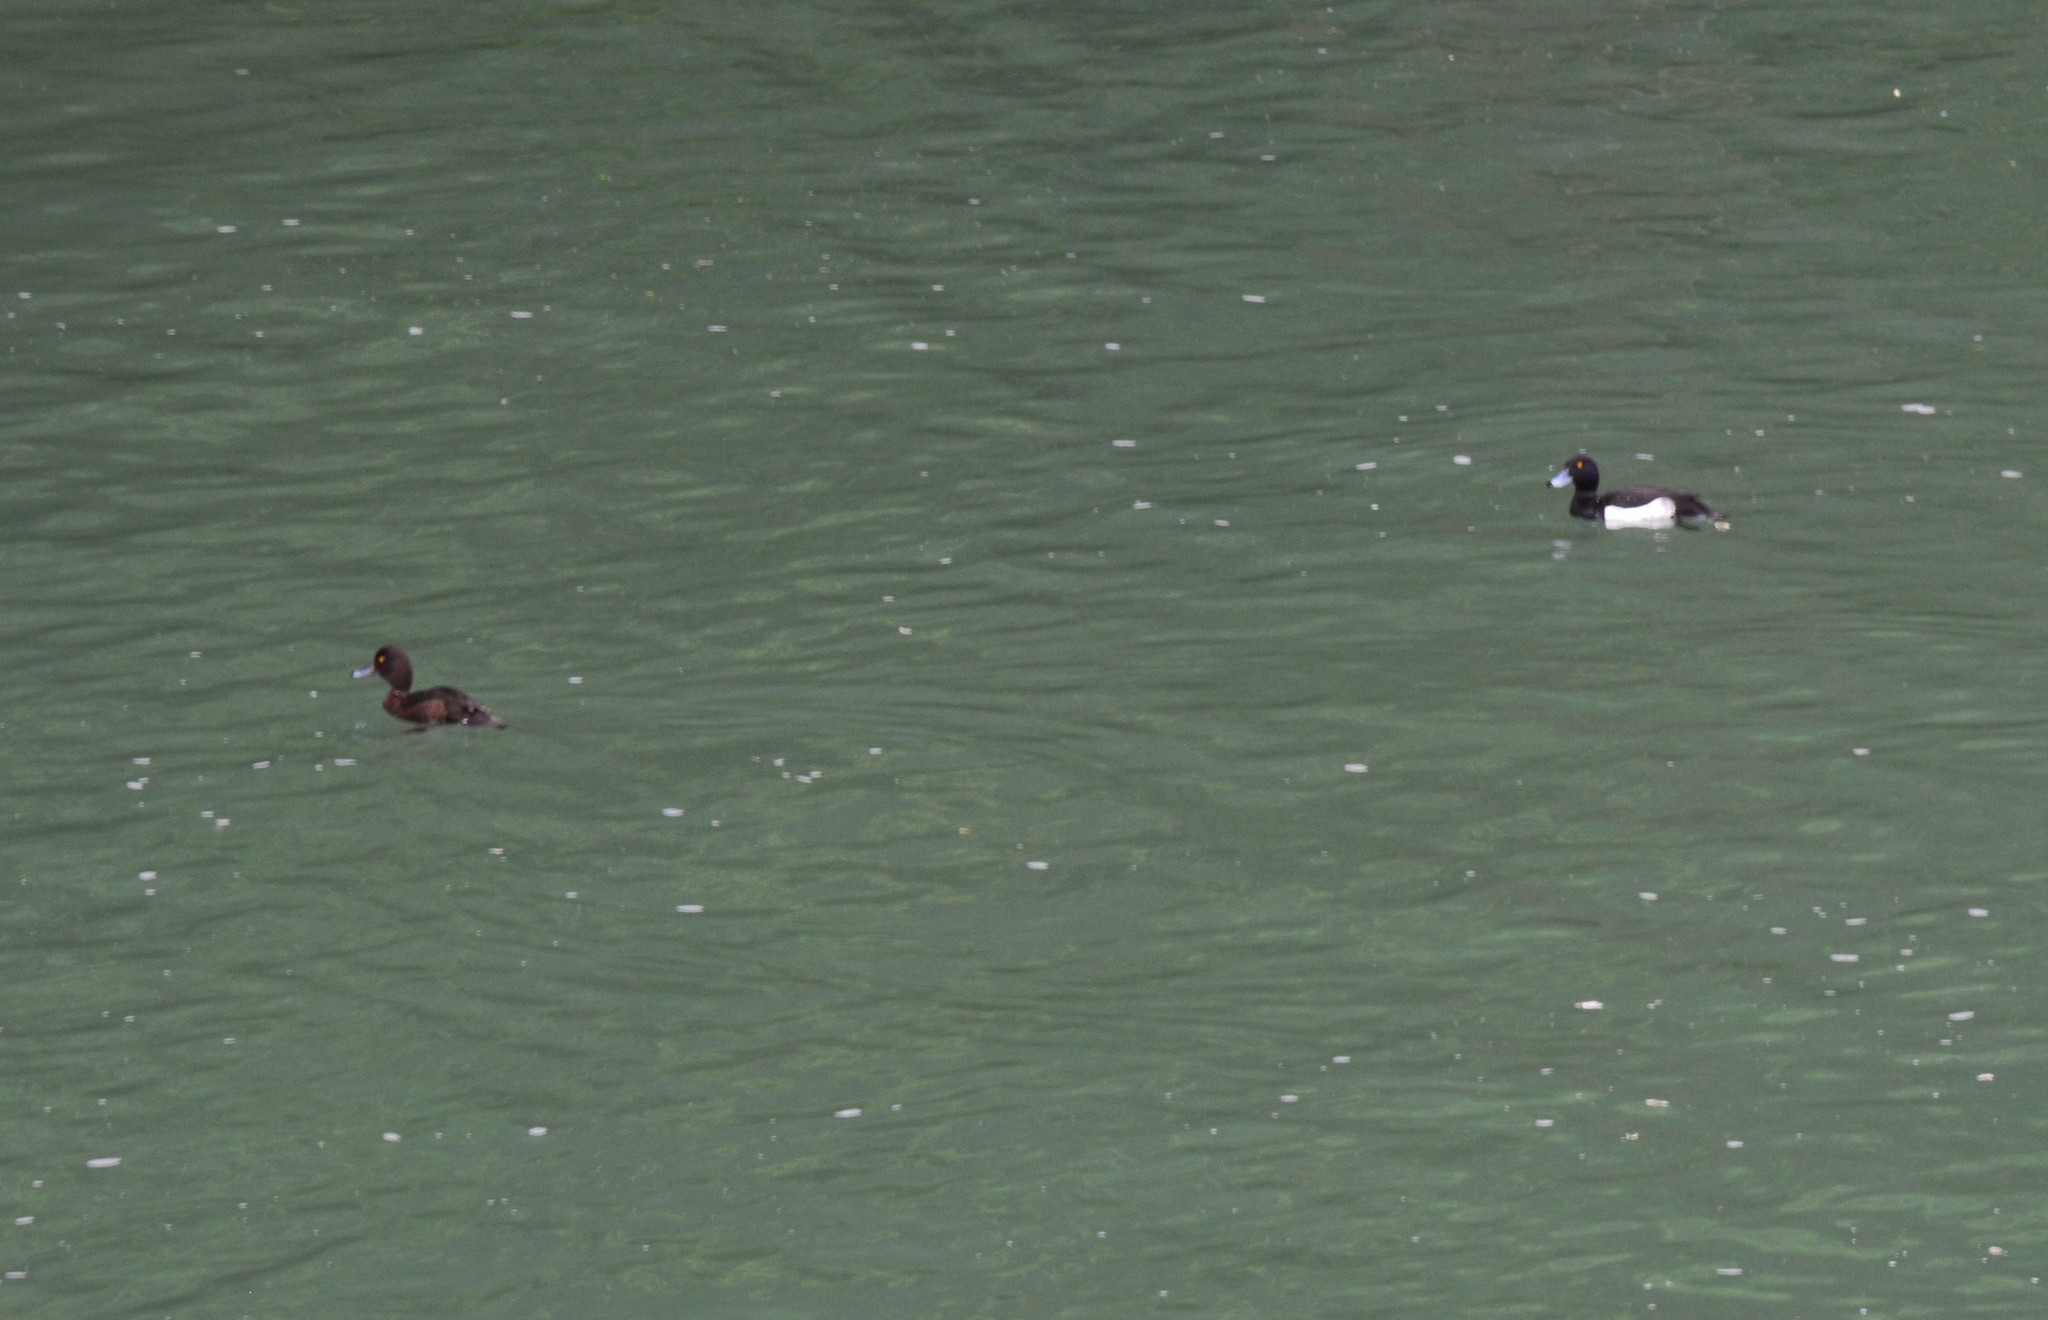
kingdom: Animalia
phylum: Chordata
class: Aves
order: Anseriformes
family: Anatidae
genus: Aythya
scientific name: Aythya fuligula
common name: Tufted duck
